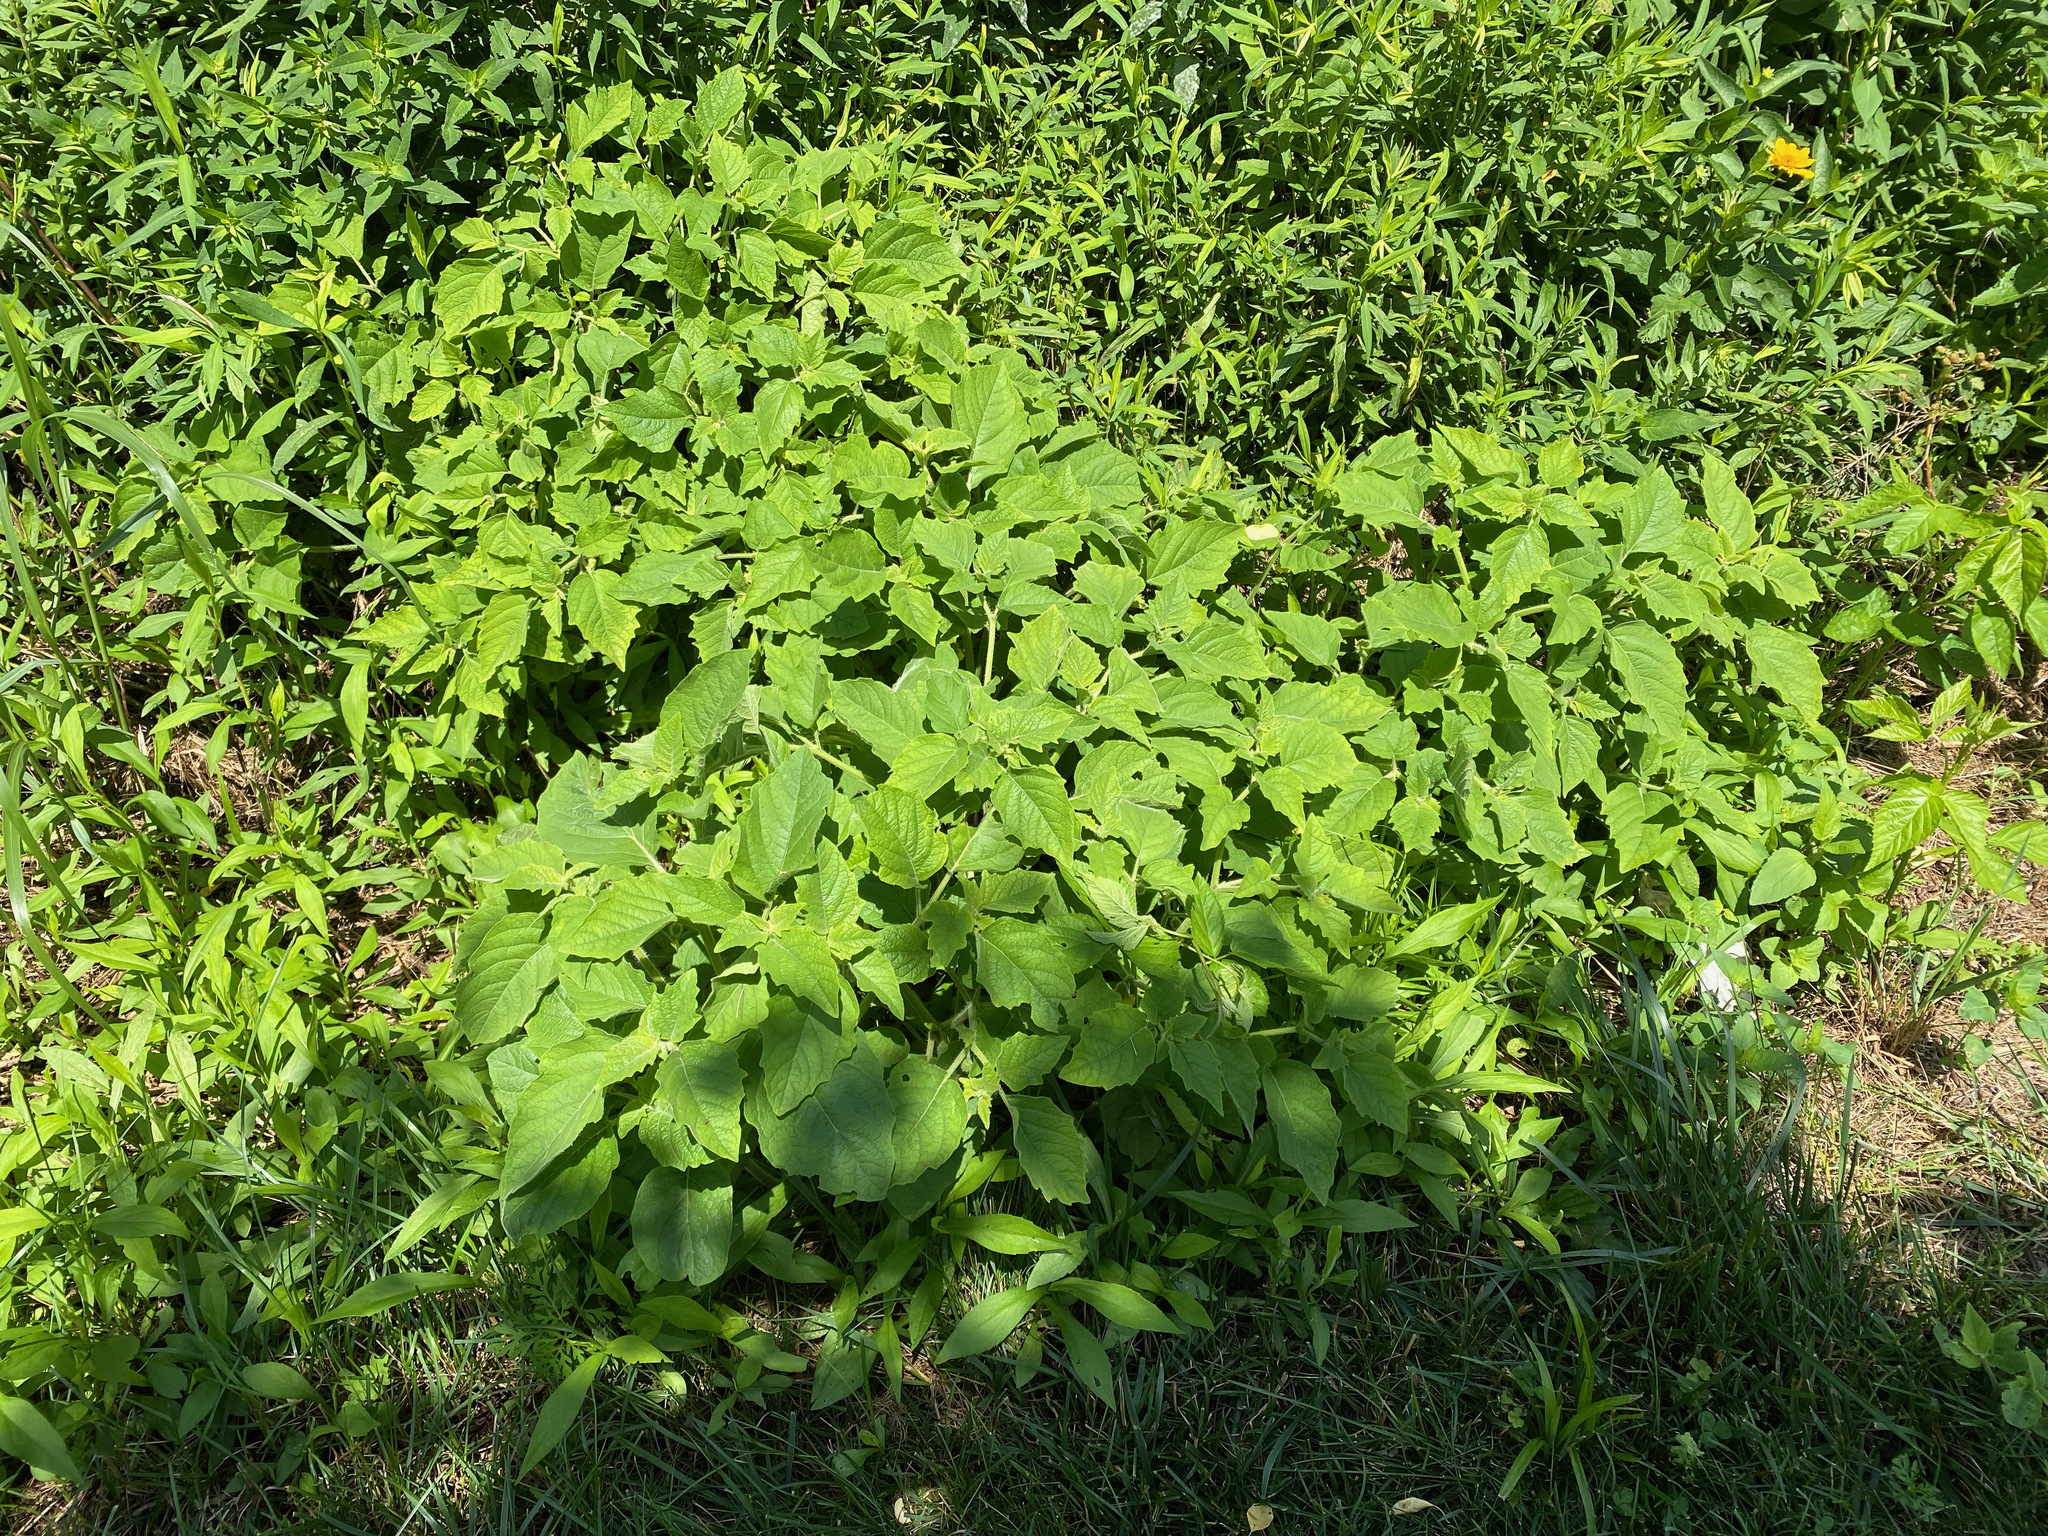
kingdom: Plantae
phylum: Tracheophyta
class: Magnoliopsida
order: Solanales
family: Solanaceae
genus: Physalis
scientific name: Physalis heterophylla
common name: Clammy ground-cherry
